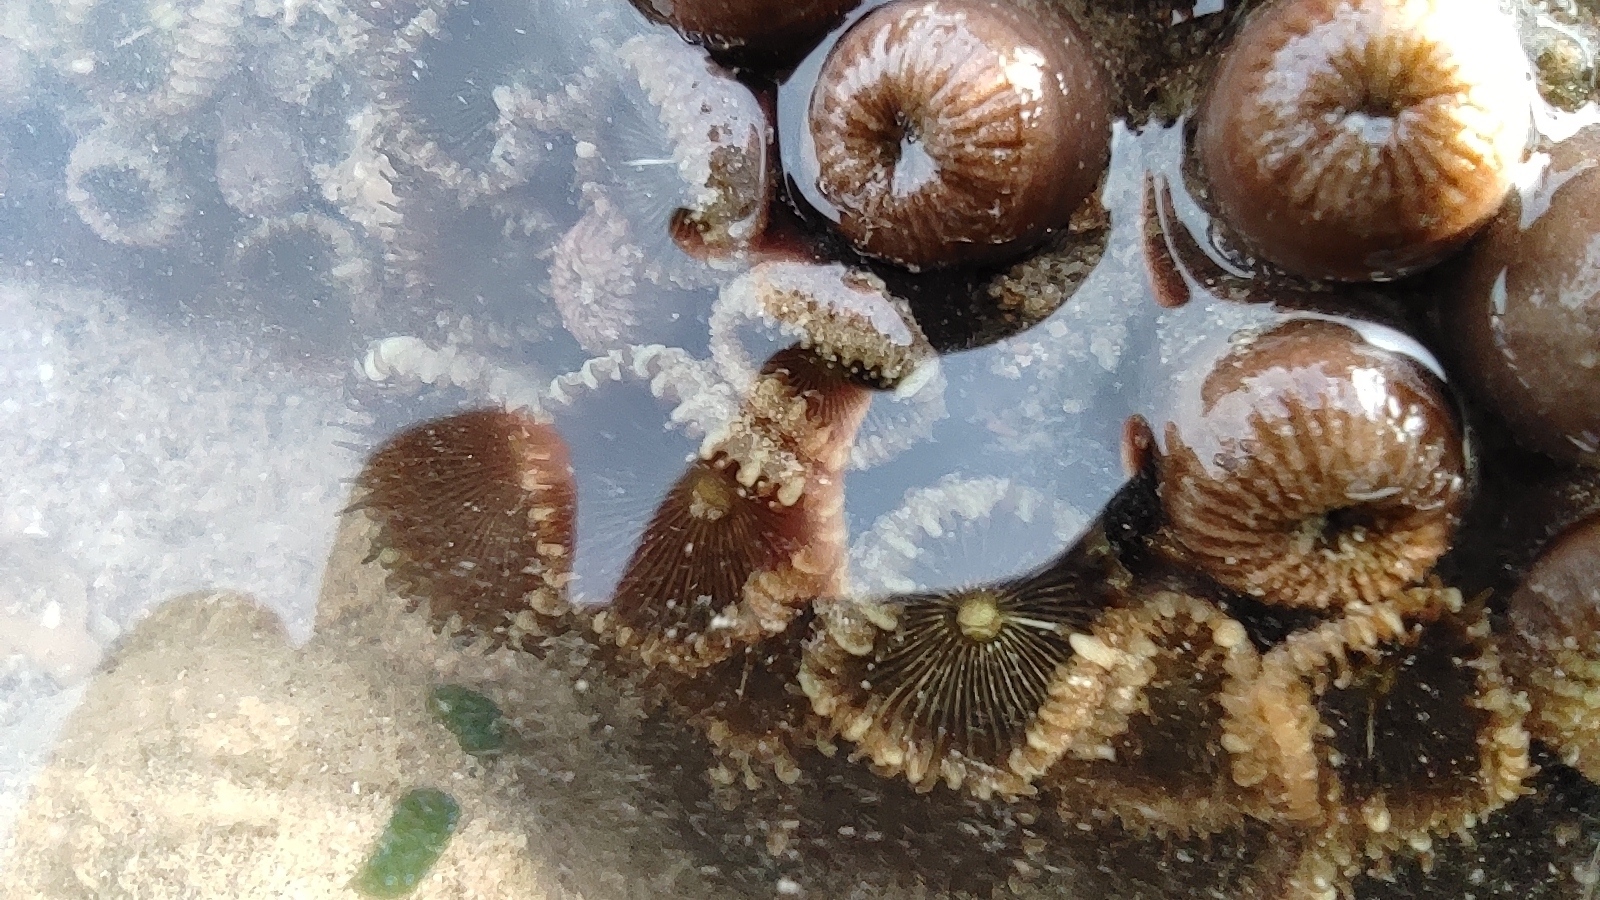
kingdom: Animalia
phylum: Cnidaria
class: Anthozoa
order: Zoantharia
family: Sphenopidae
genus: Palythoa
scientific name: Palythoa mutuki
